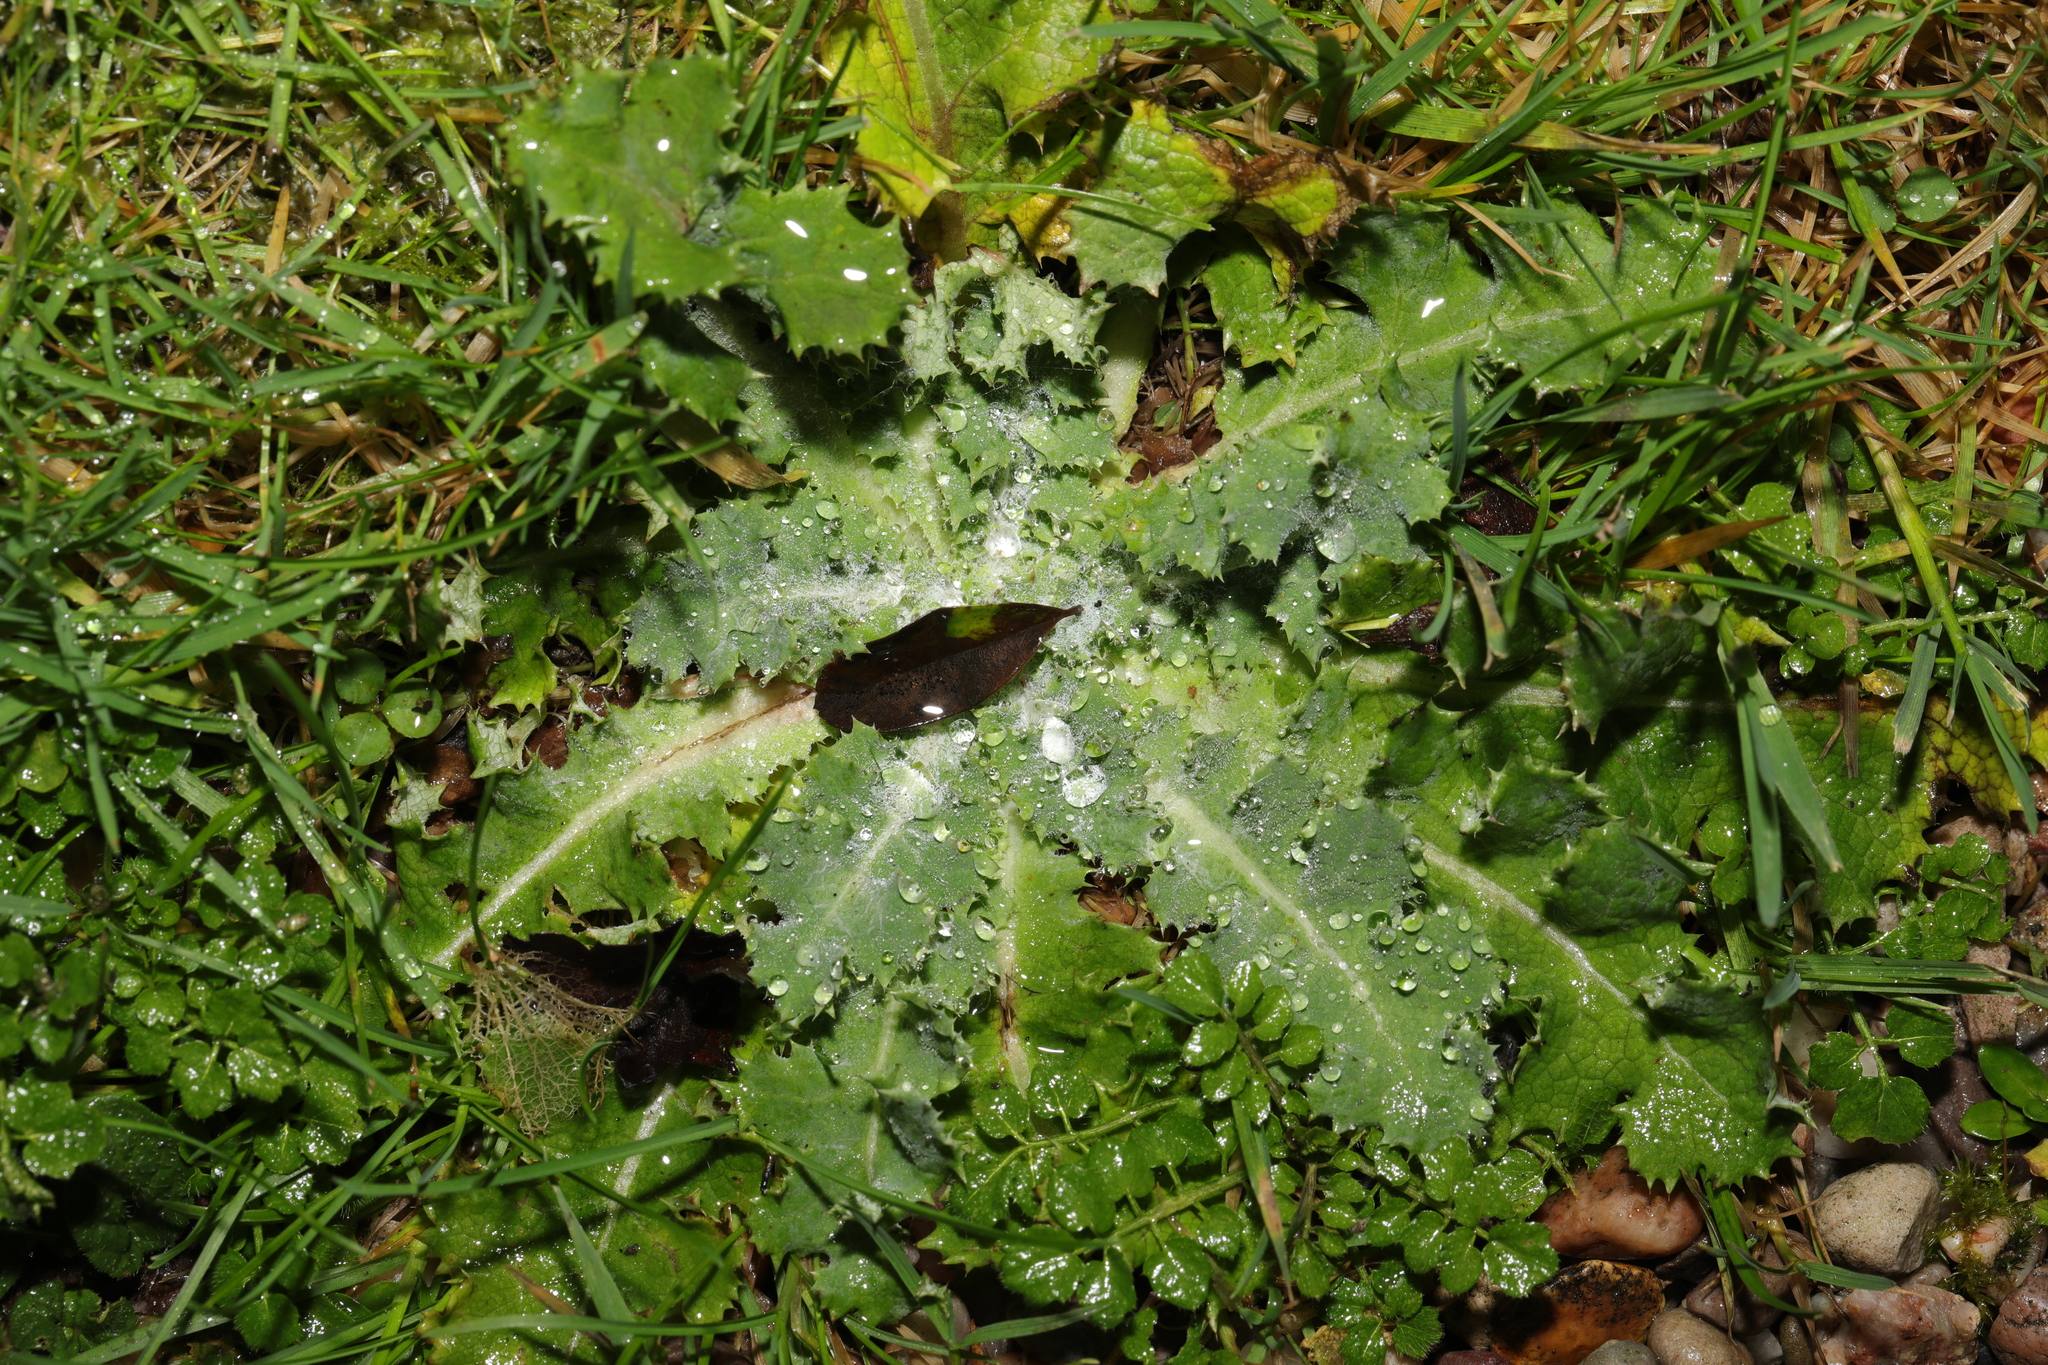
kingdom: Plantae
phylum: Tracheophyta
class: Magnoliopsida
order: Asterales
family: Asteraceae
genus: Sonchus
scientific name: Sonchus asper
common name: Prickly sow-thistle
